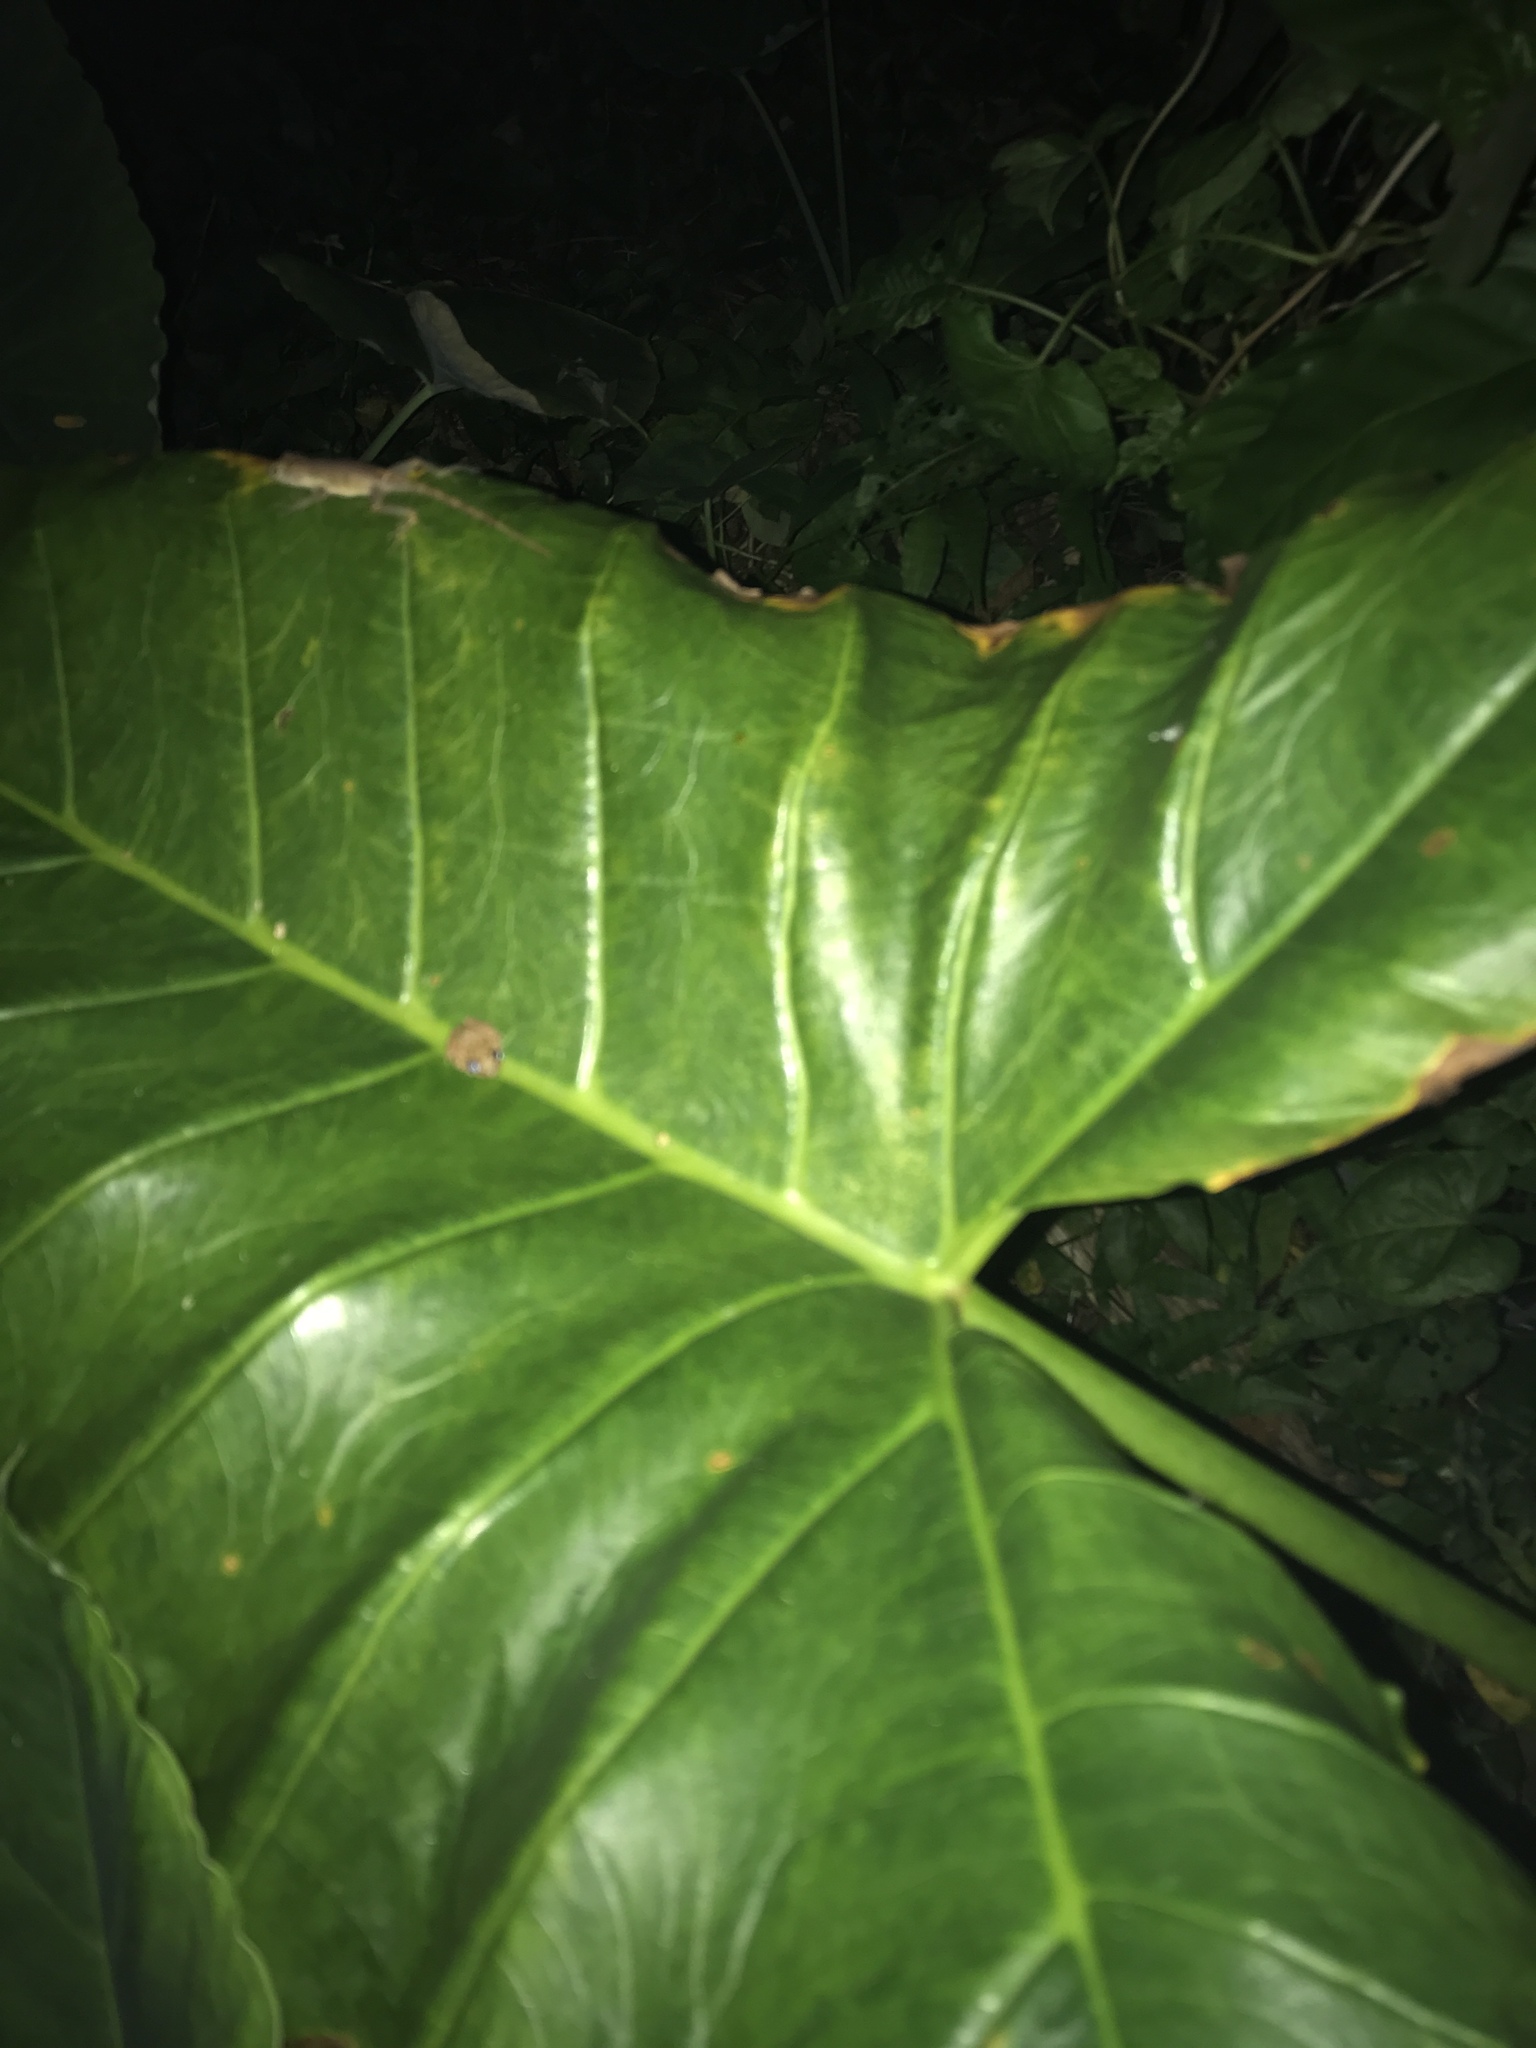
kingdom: Plantae
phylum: Tracheophyta
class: Liliopsida
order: Alismatales
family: Araceae
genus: Xanthosoma
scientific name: Xanthosoma sagittifolium
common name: Arrowleaf elephant's ear
